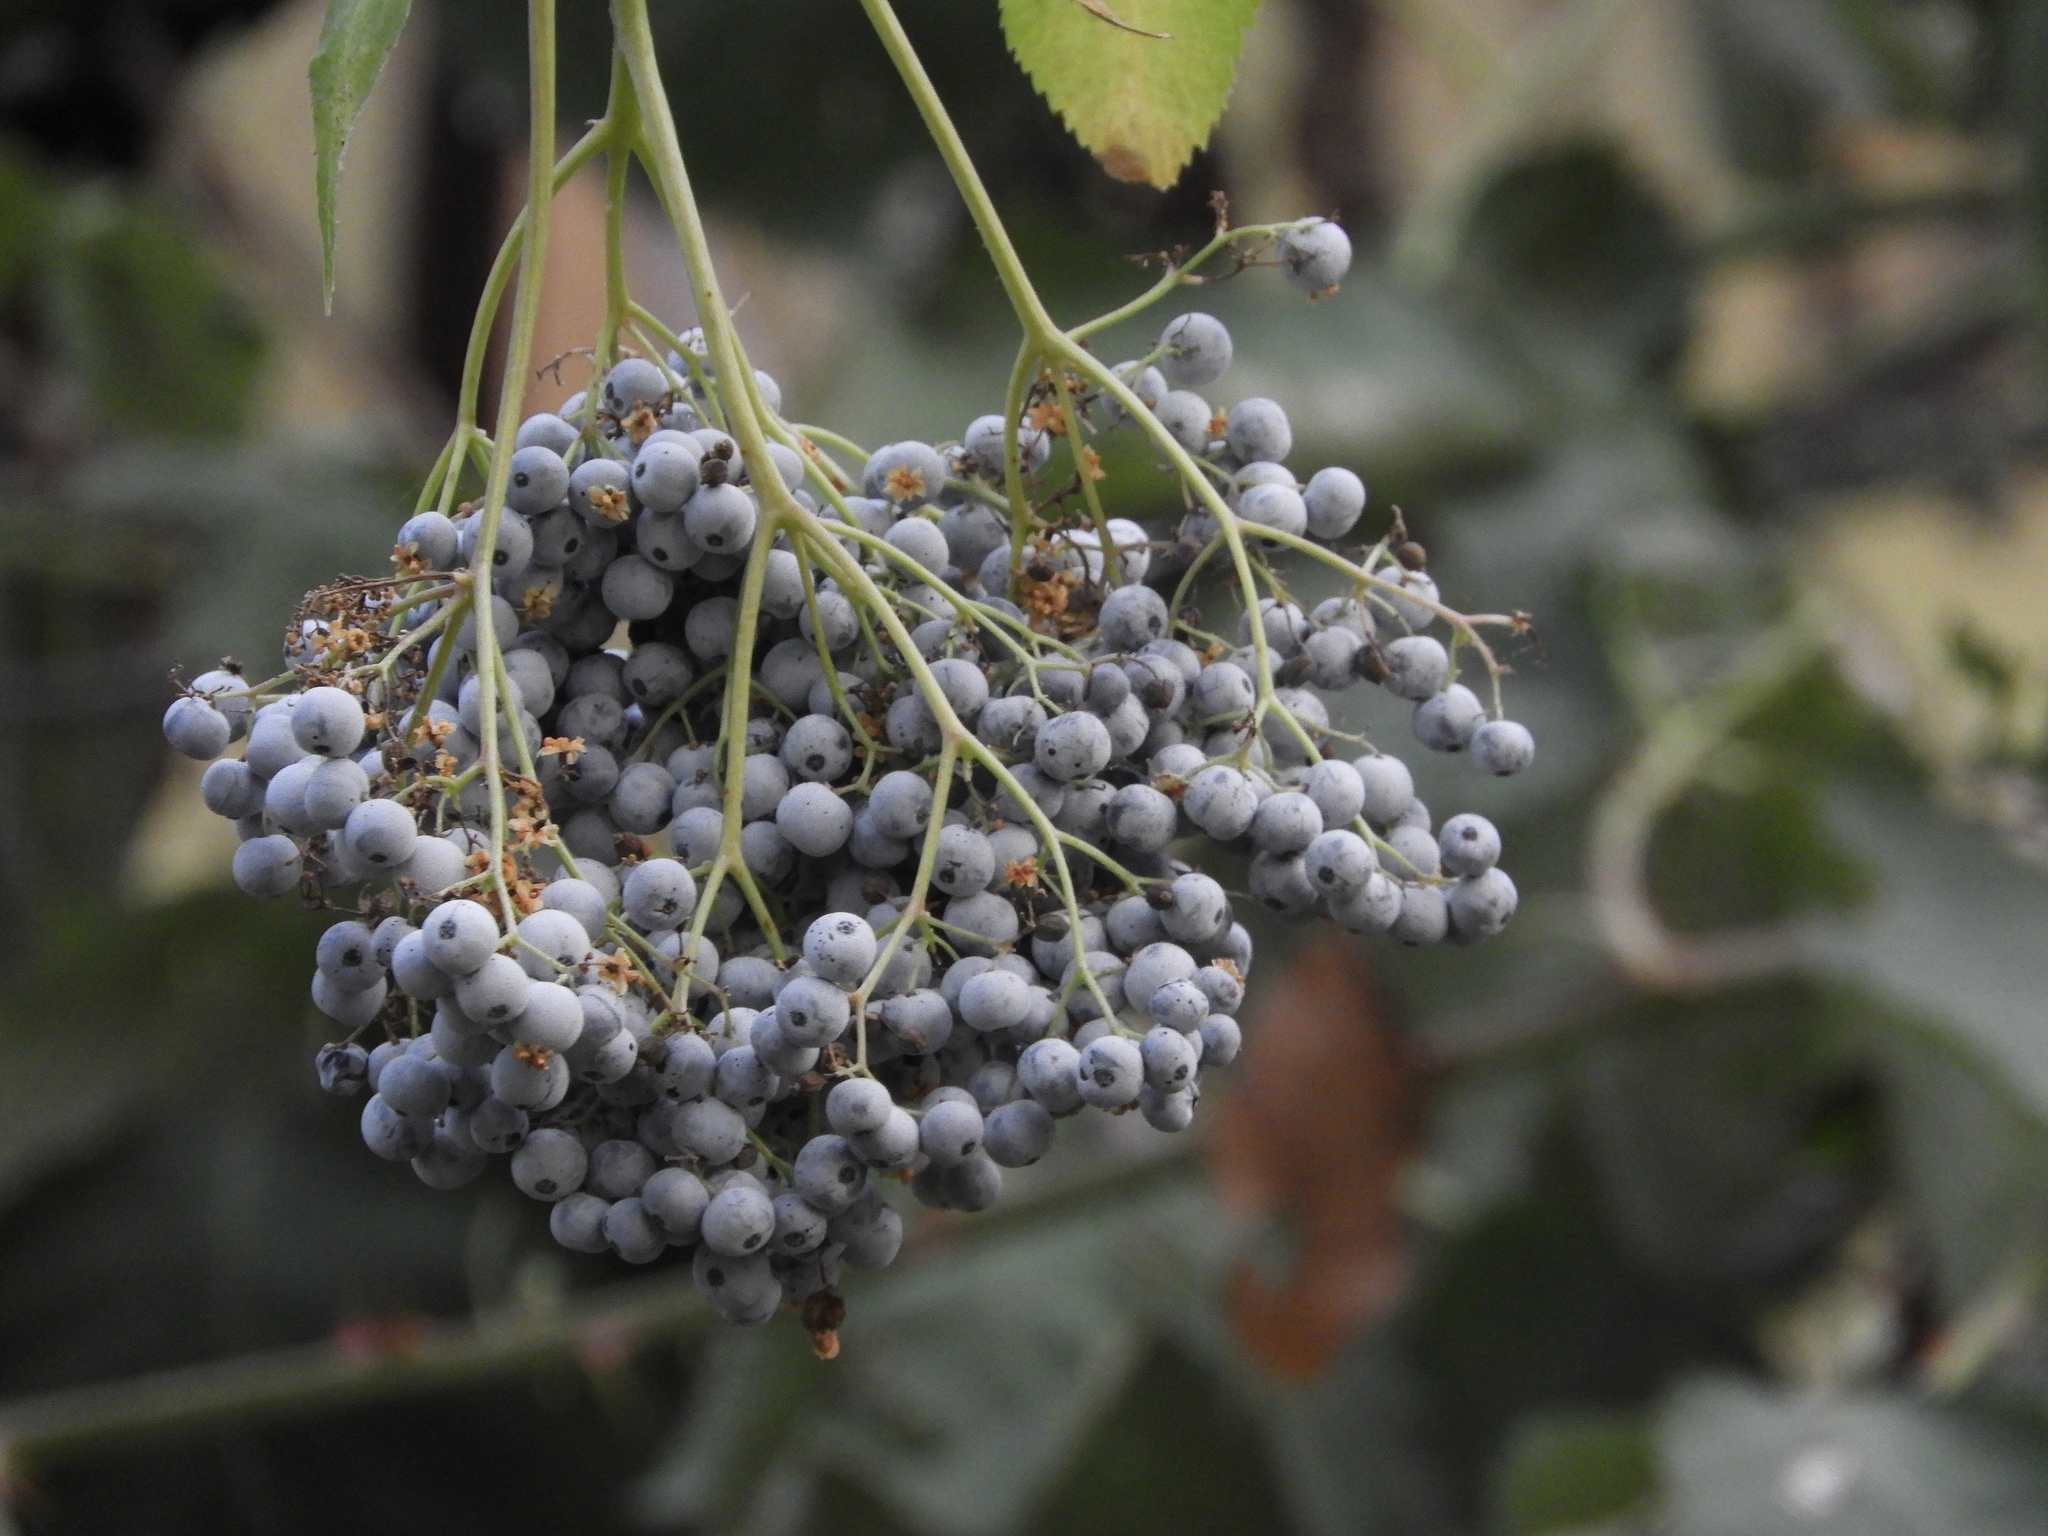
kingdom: Plantae
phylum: Tracheophyta
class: Magnoliopsida
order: Dipsacales
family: Viburnaceae
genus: Sambucus
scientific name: Sambucus cerulea
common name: Blue elder
